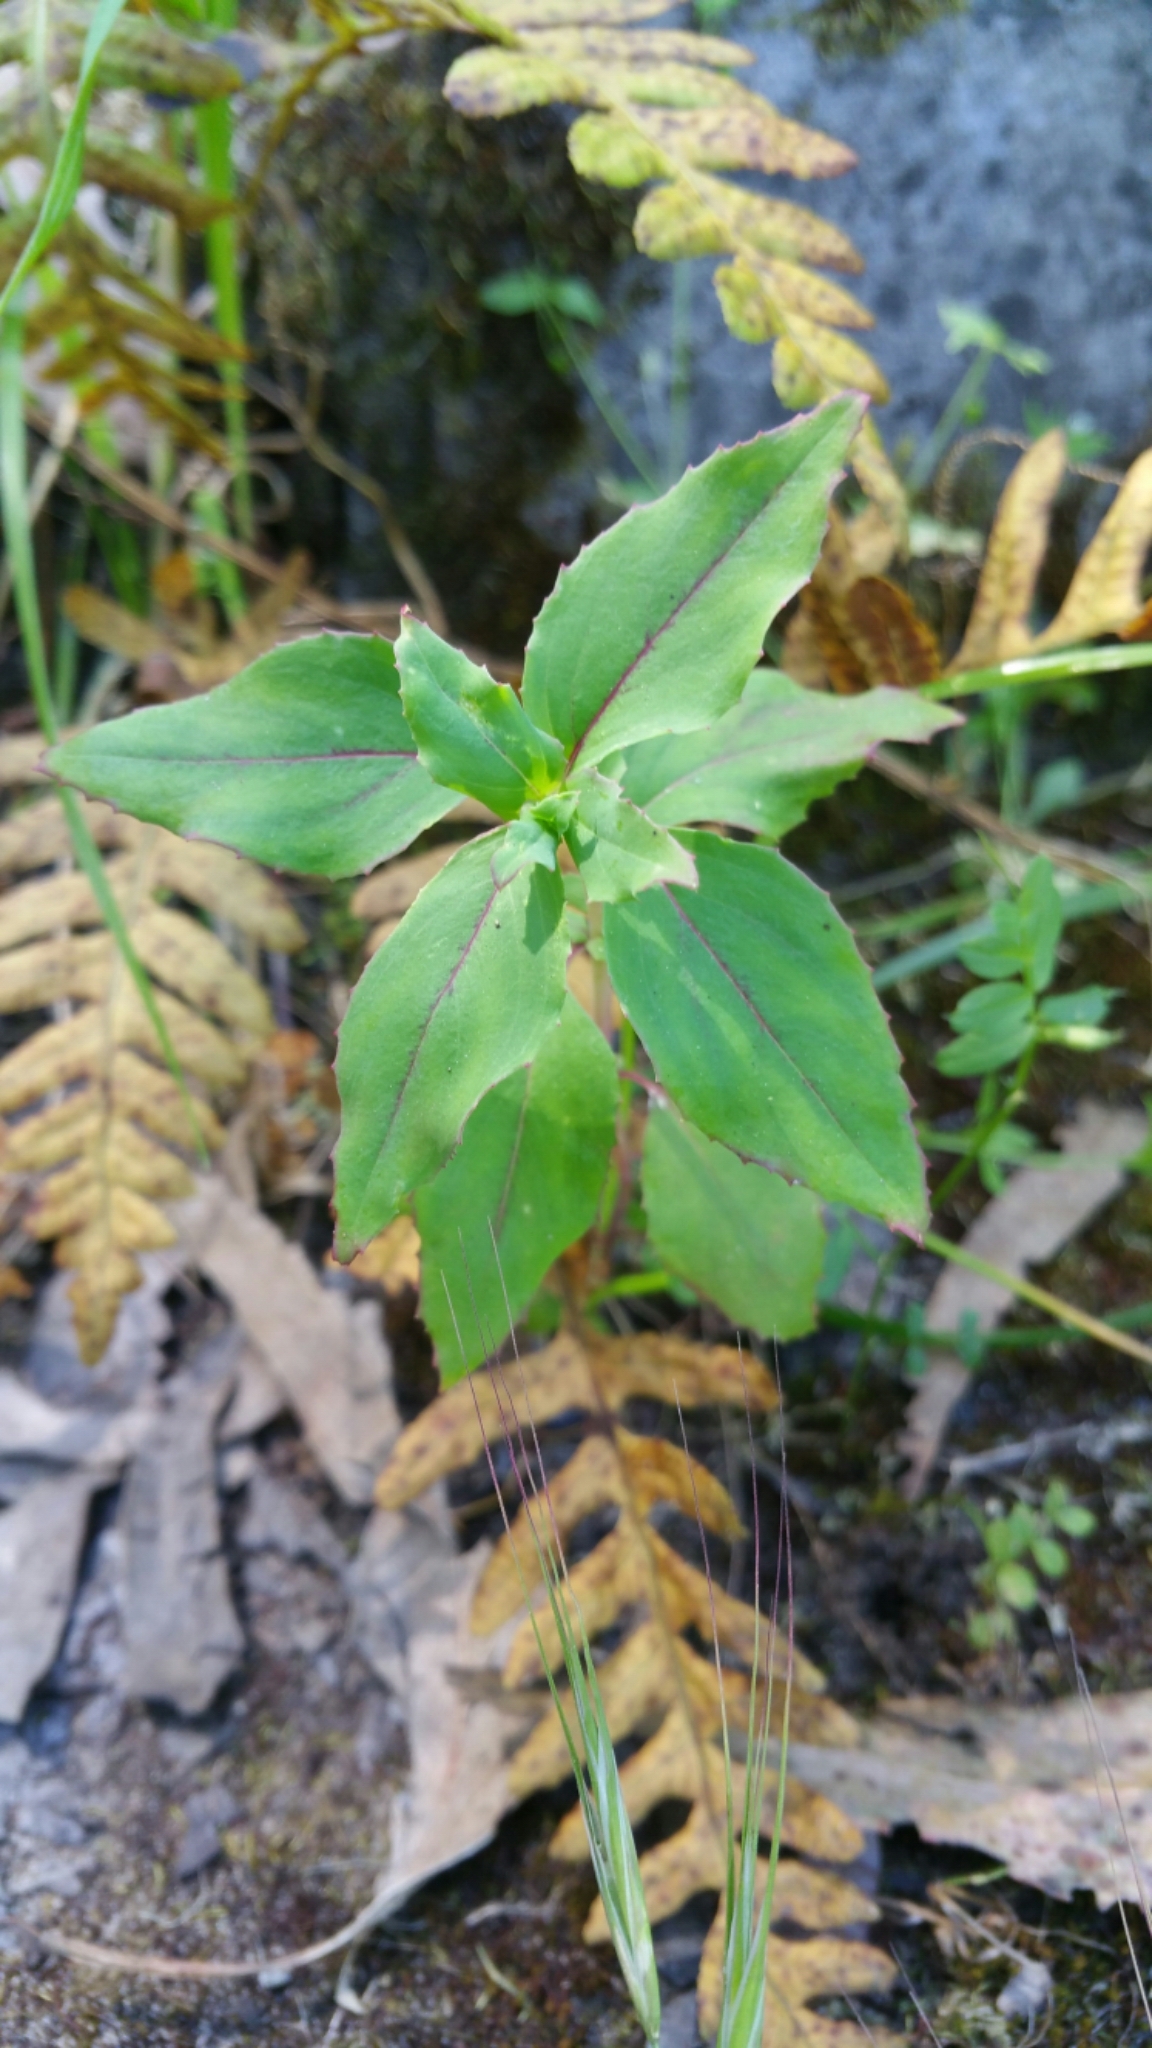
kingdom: Plantae
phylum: Tracheophyta
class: Magnoliopsida
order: Myrtales
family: Onagraceae
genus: Clarkia
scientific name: Clarkia unguiculata
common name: Clarkia
